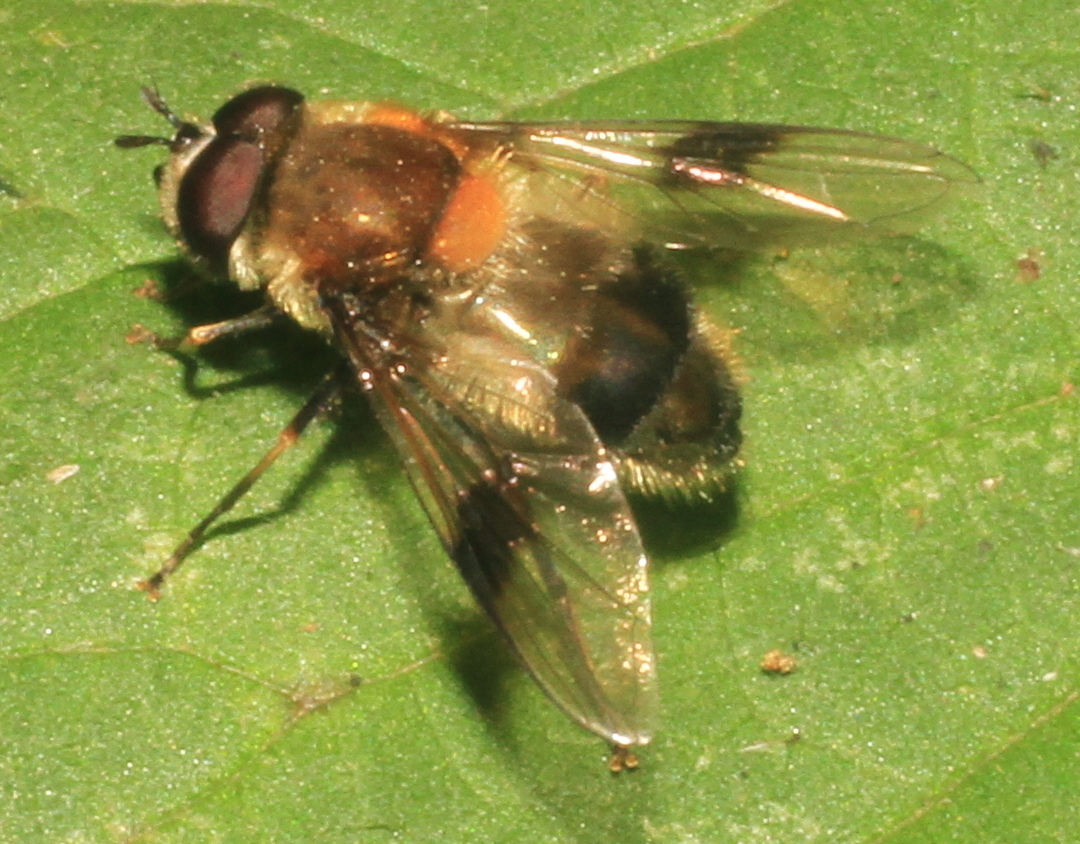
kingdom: Animalia
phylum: Arthropoda
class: Insecta
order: Diptera
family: Syrphidae
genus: Leucozona
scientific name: Leucozona lucorum
